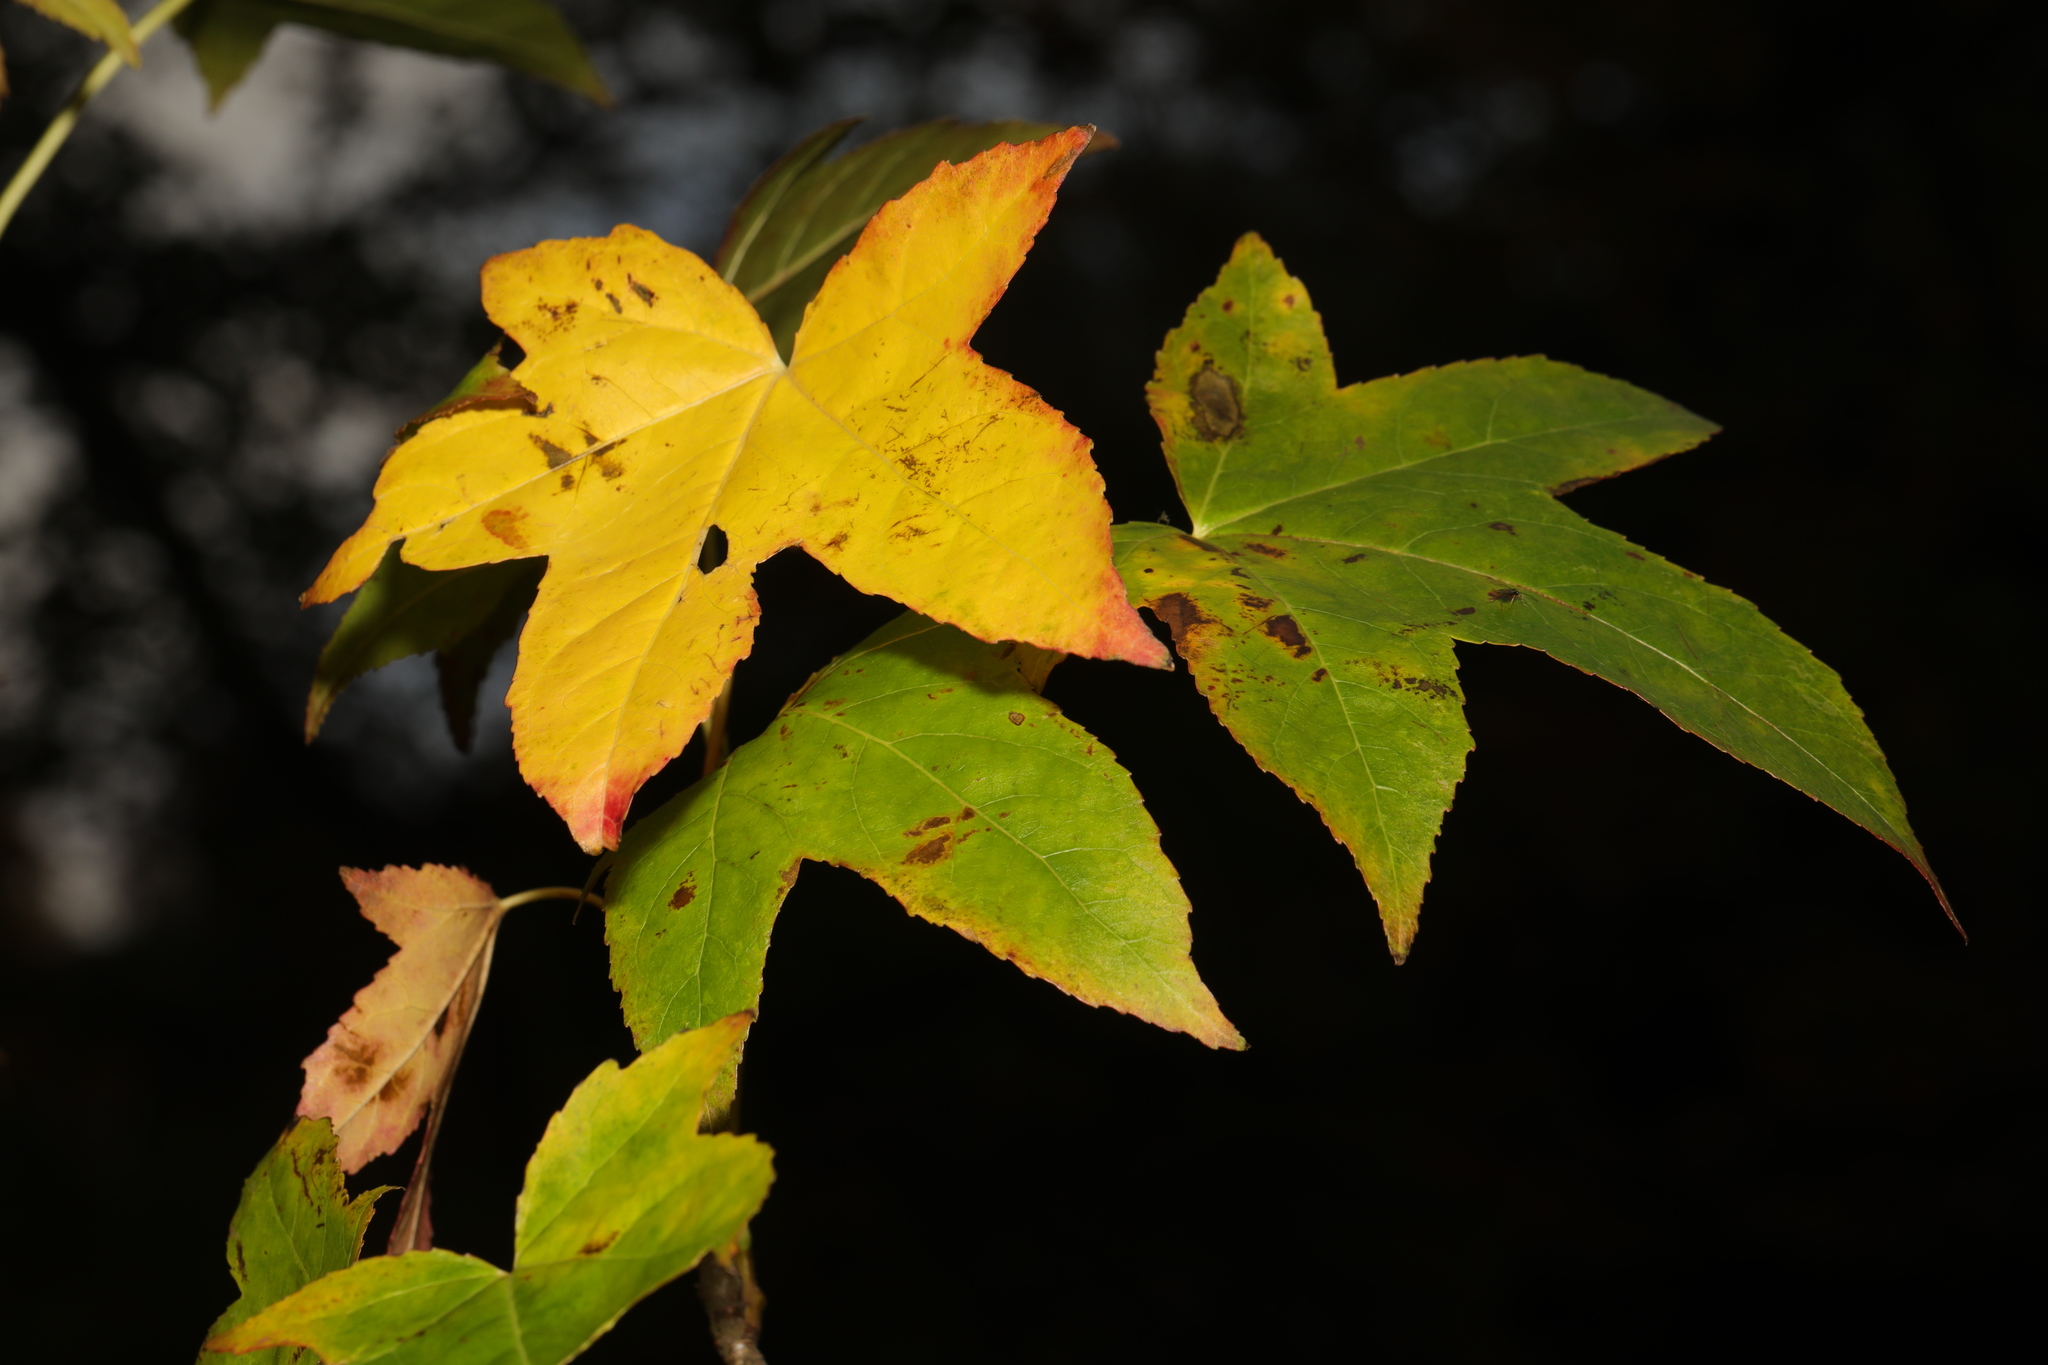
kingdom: Plantae
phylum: Tracheophyta
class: Magnoliopsida
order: Saxifragales
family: Altingiaceae
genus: Liquidambar
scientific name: Liquidambar styraciflua
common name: Sweet gum
